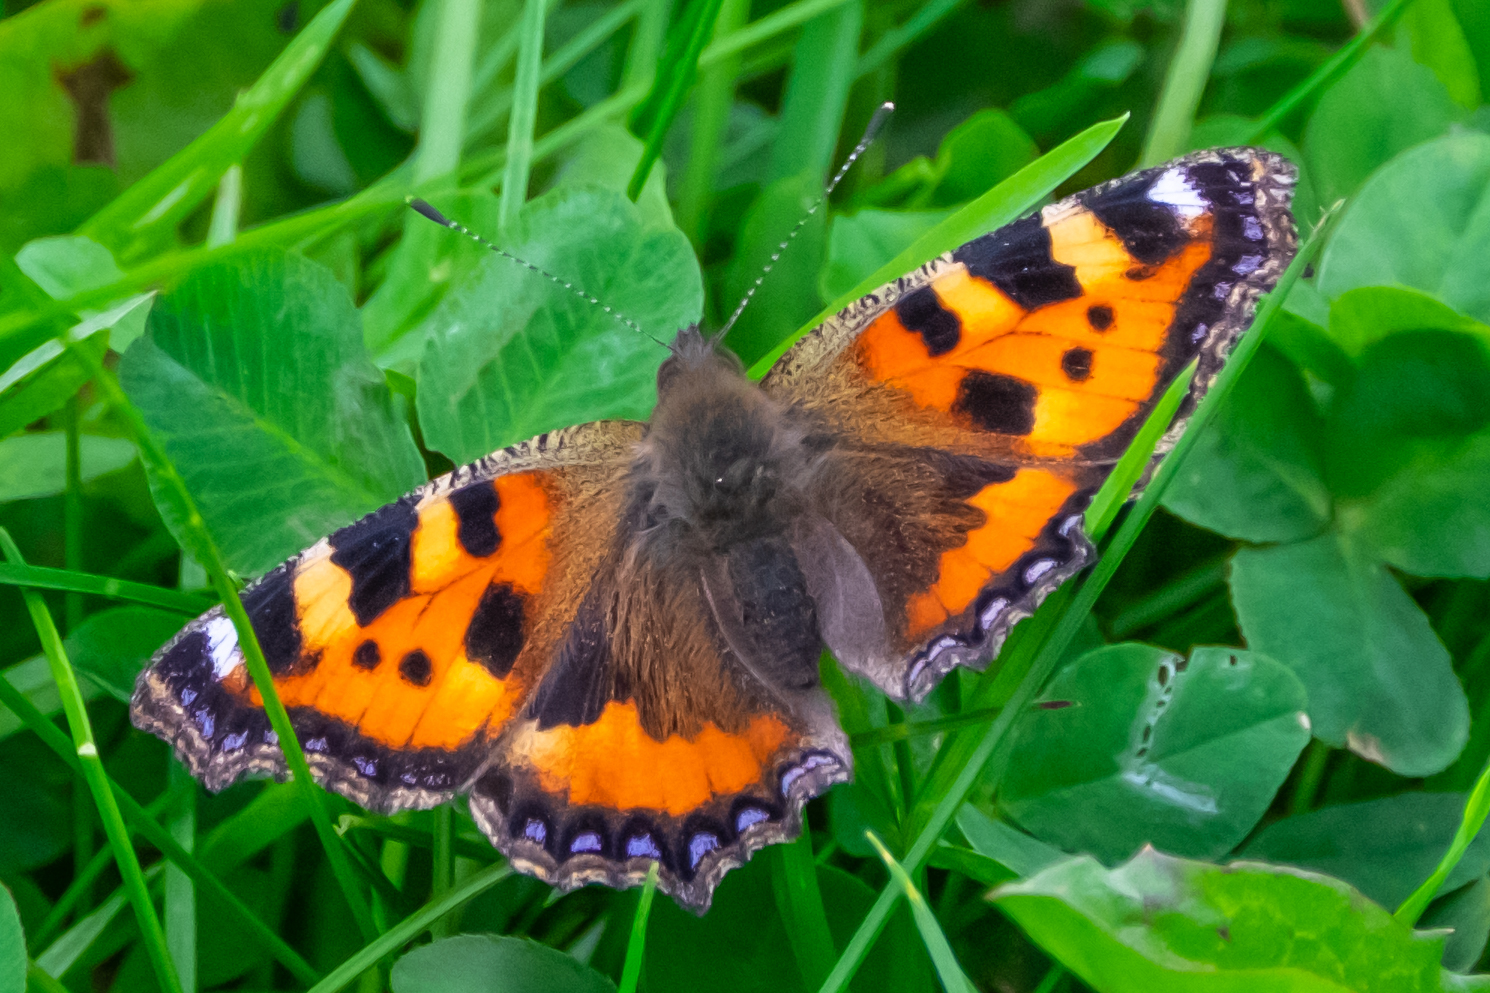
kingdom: Animalia
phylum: Arthropoda
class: Insecta
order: Lepidoptera
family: Nymphalidae
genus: Aglais
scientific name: Aglais urticae
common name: Small tortoiseshell
